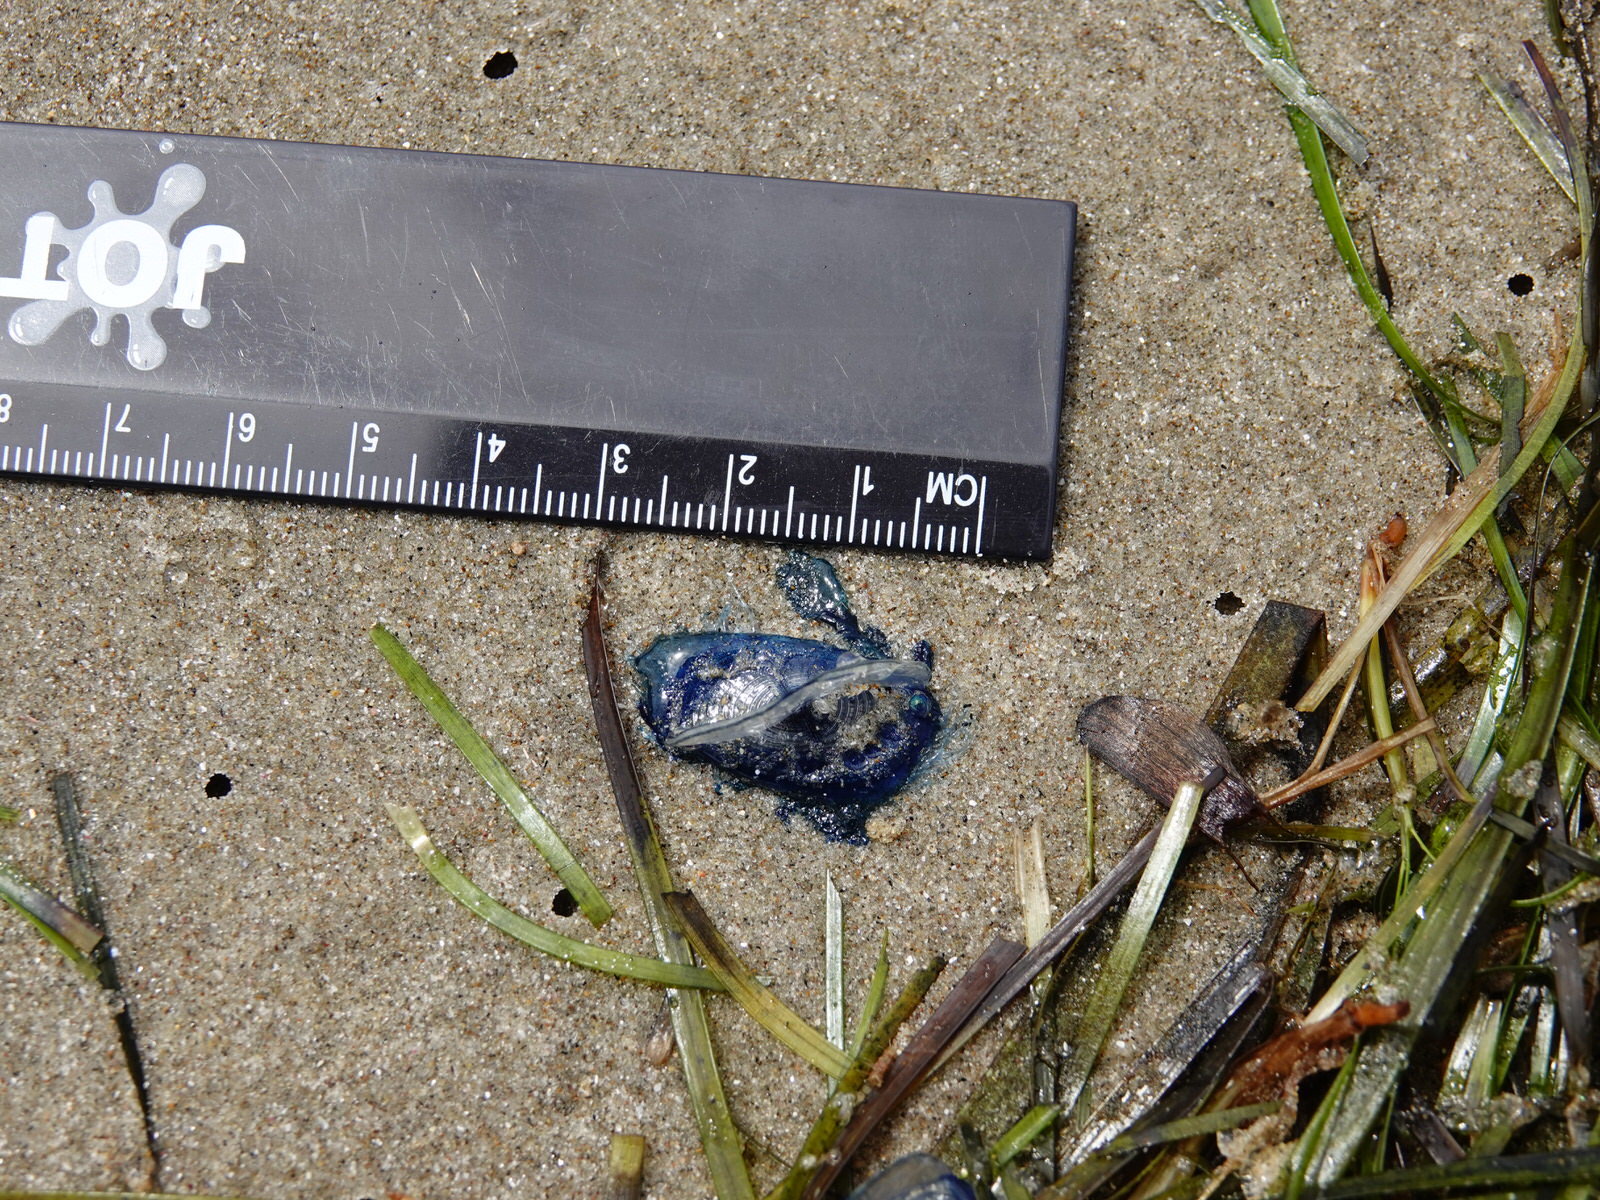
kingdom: Animalia
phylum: Cnidaria
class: Hydrozoa
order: Anthoathecata
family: Porpitidae
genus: Velella
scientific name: Velella velella
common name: By-the-wind-sailor
